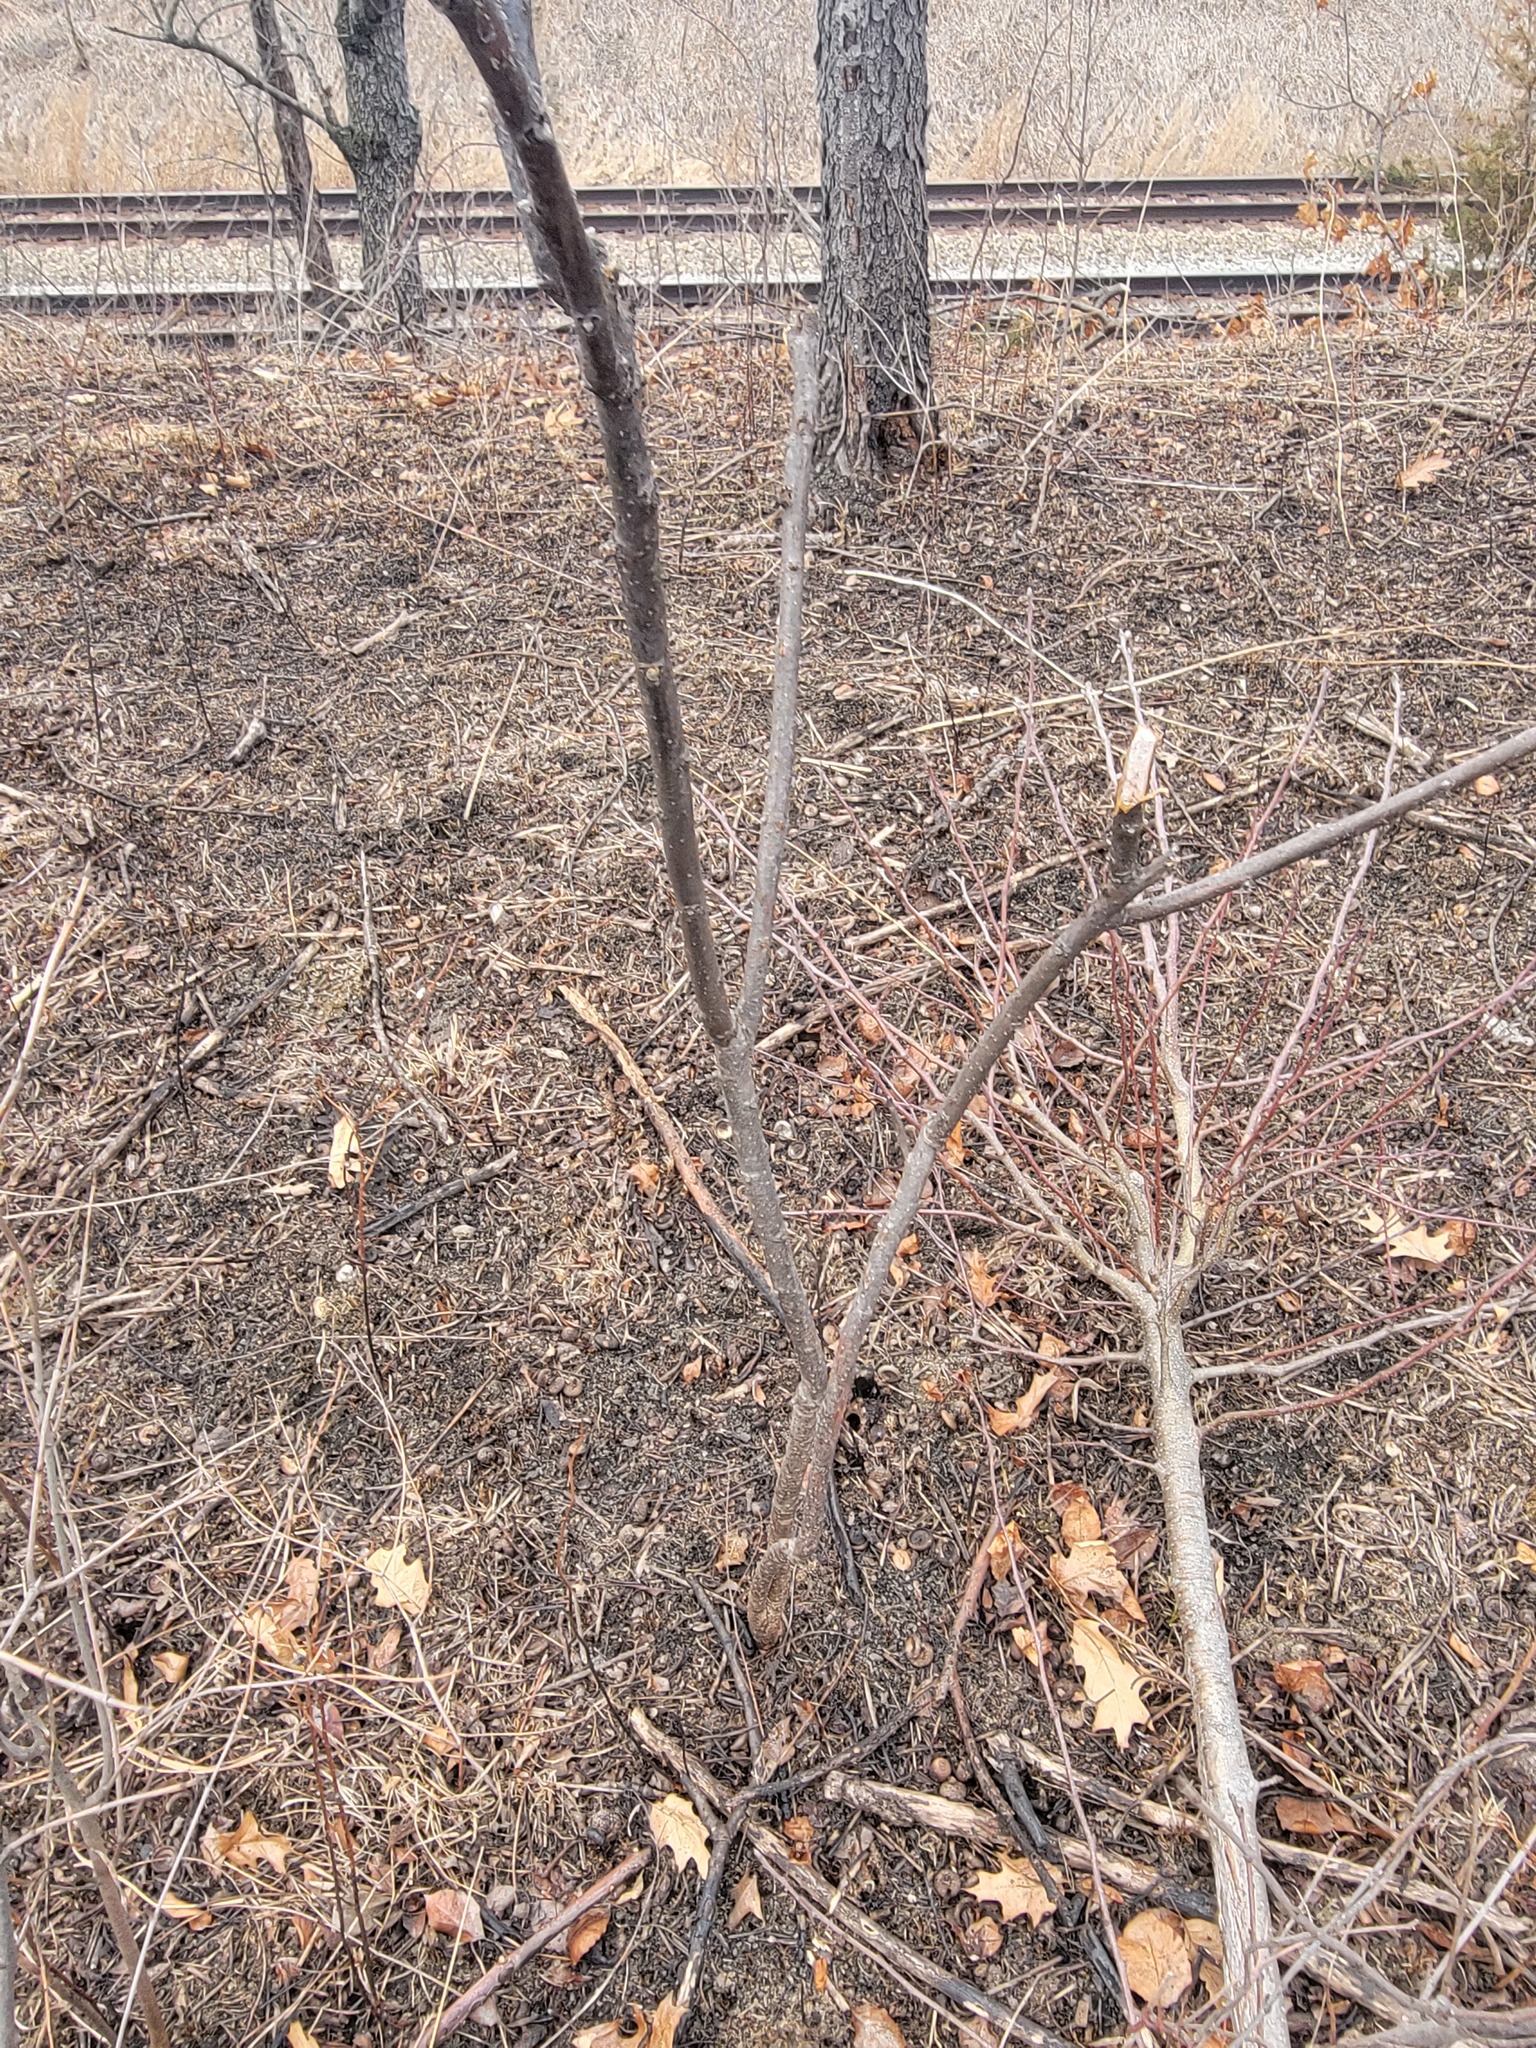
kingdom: Plantae
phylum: Tracheophyta
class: Magnoliopsida
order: Sapindales
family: Anacardiaceae
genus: Rhus
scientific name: Rhus glabra
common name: Scarlet sumac
